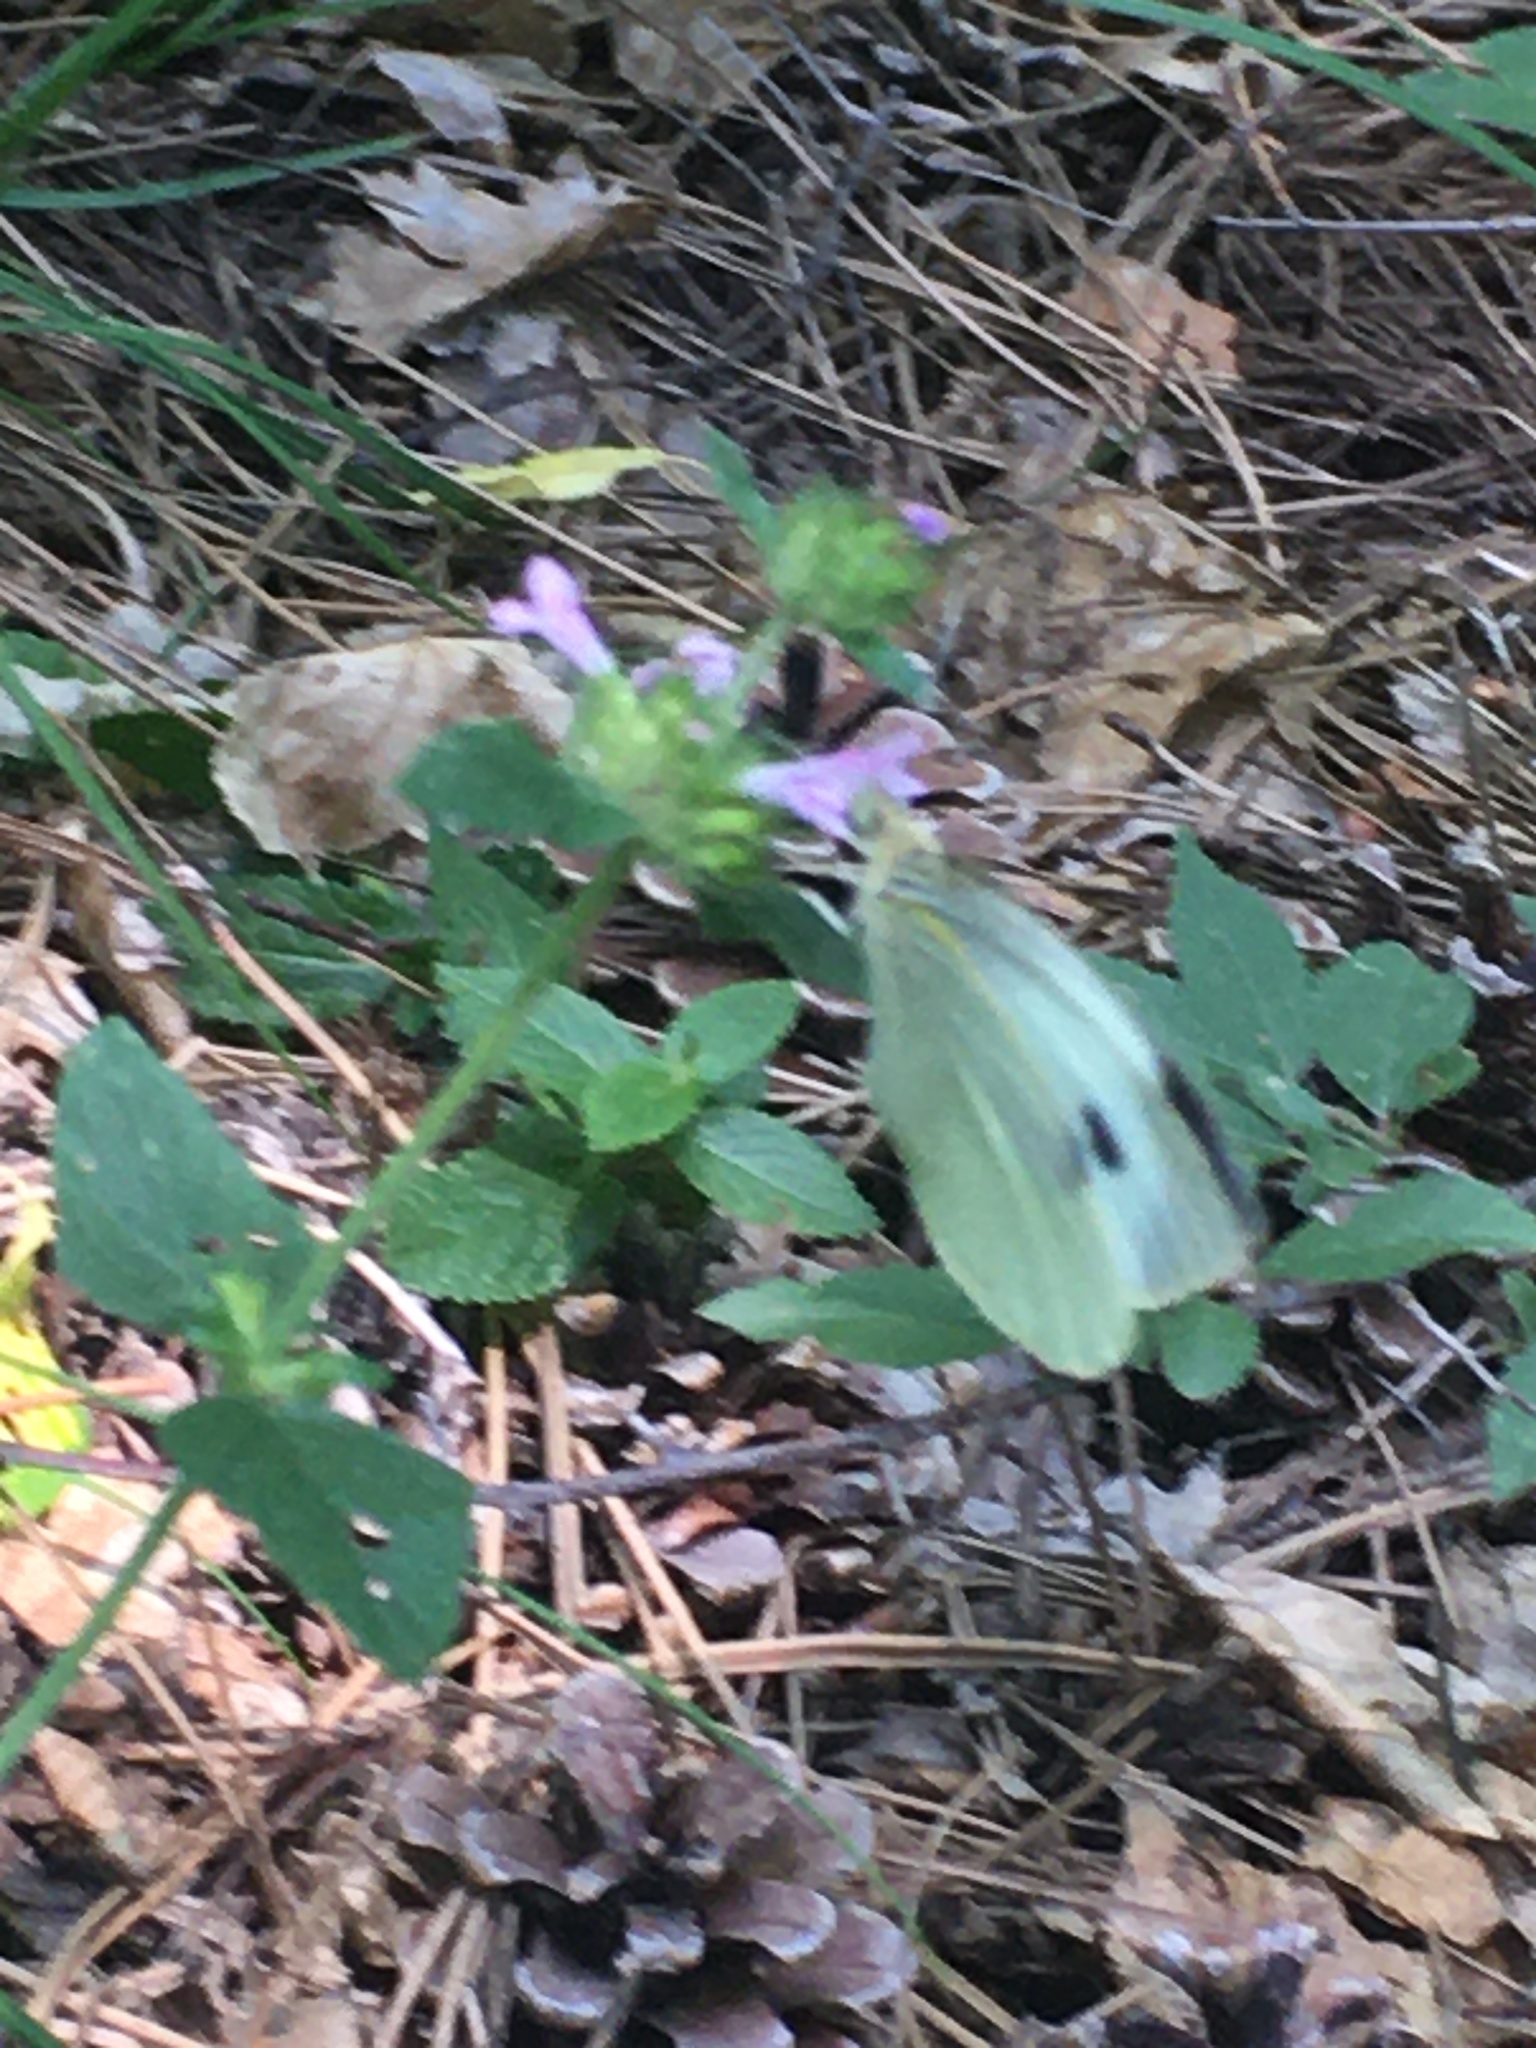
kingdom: Animalia
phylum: Arthropoda
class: Insecta
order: Lepidoptera
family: Pieridae
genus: Pieris
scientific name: Pieris brassicae
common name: Large white
